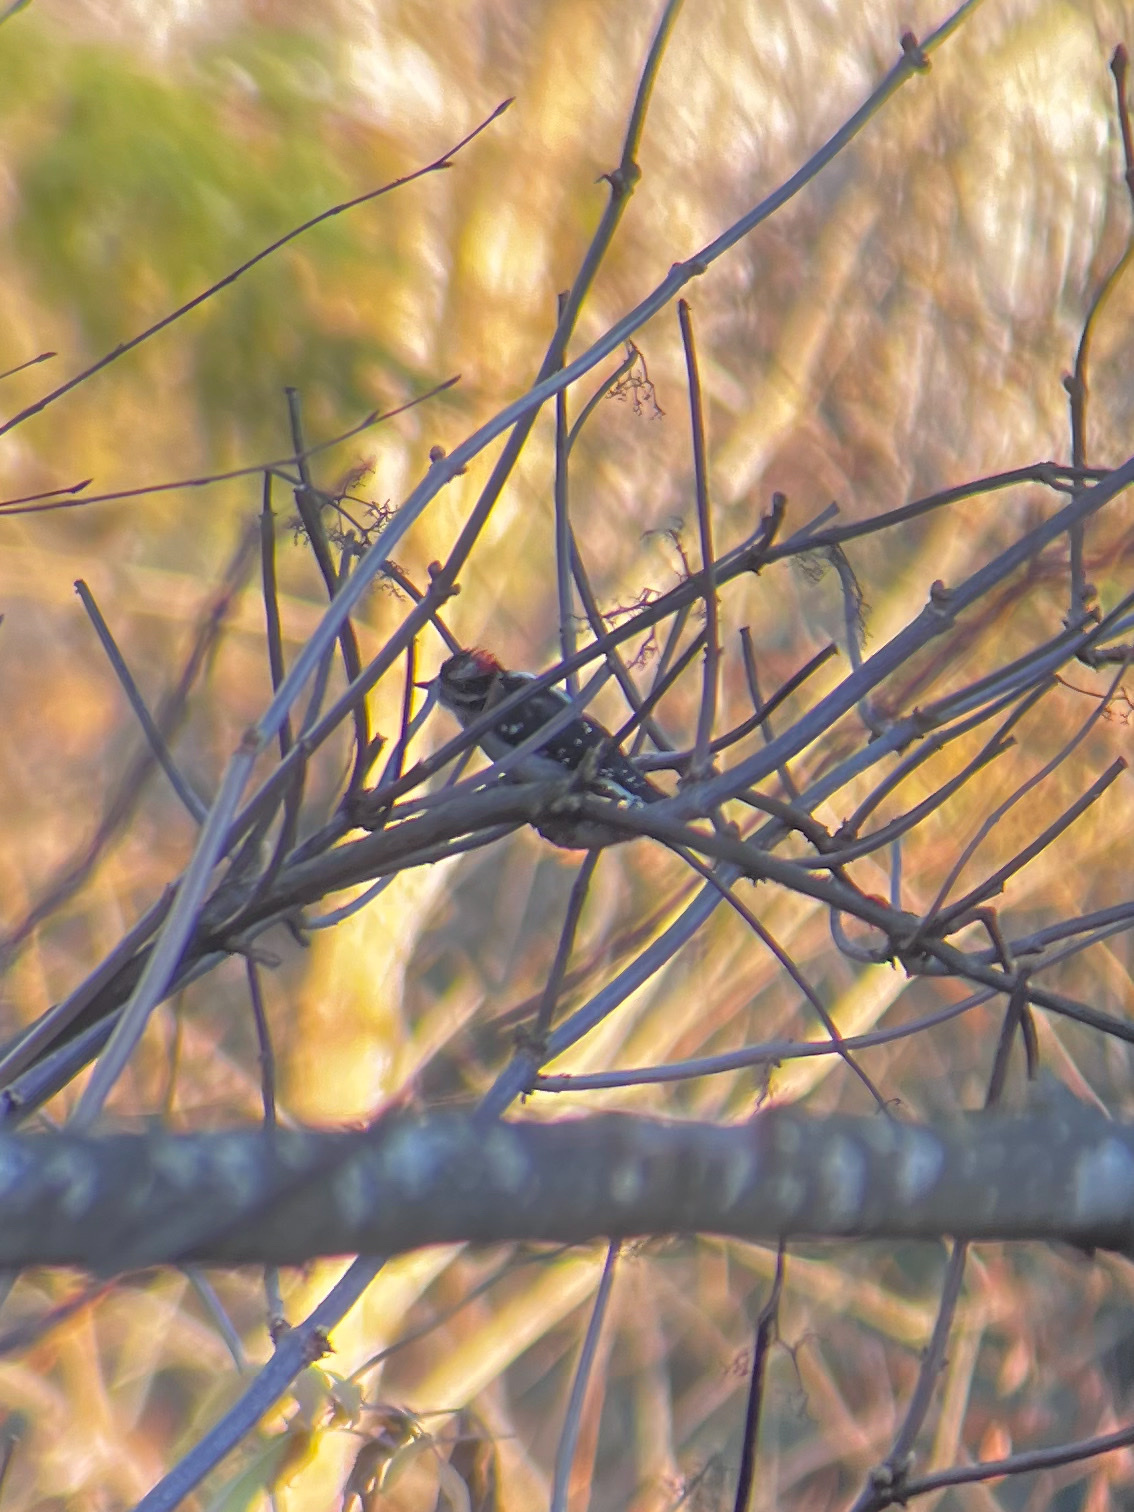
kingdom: Animalia
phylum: Chordata
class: Aves
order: Piciformes
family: Picidae
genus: Dryobates
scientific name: Dryobates pubescens
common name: Downy woodpecker
